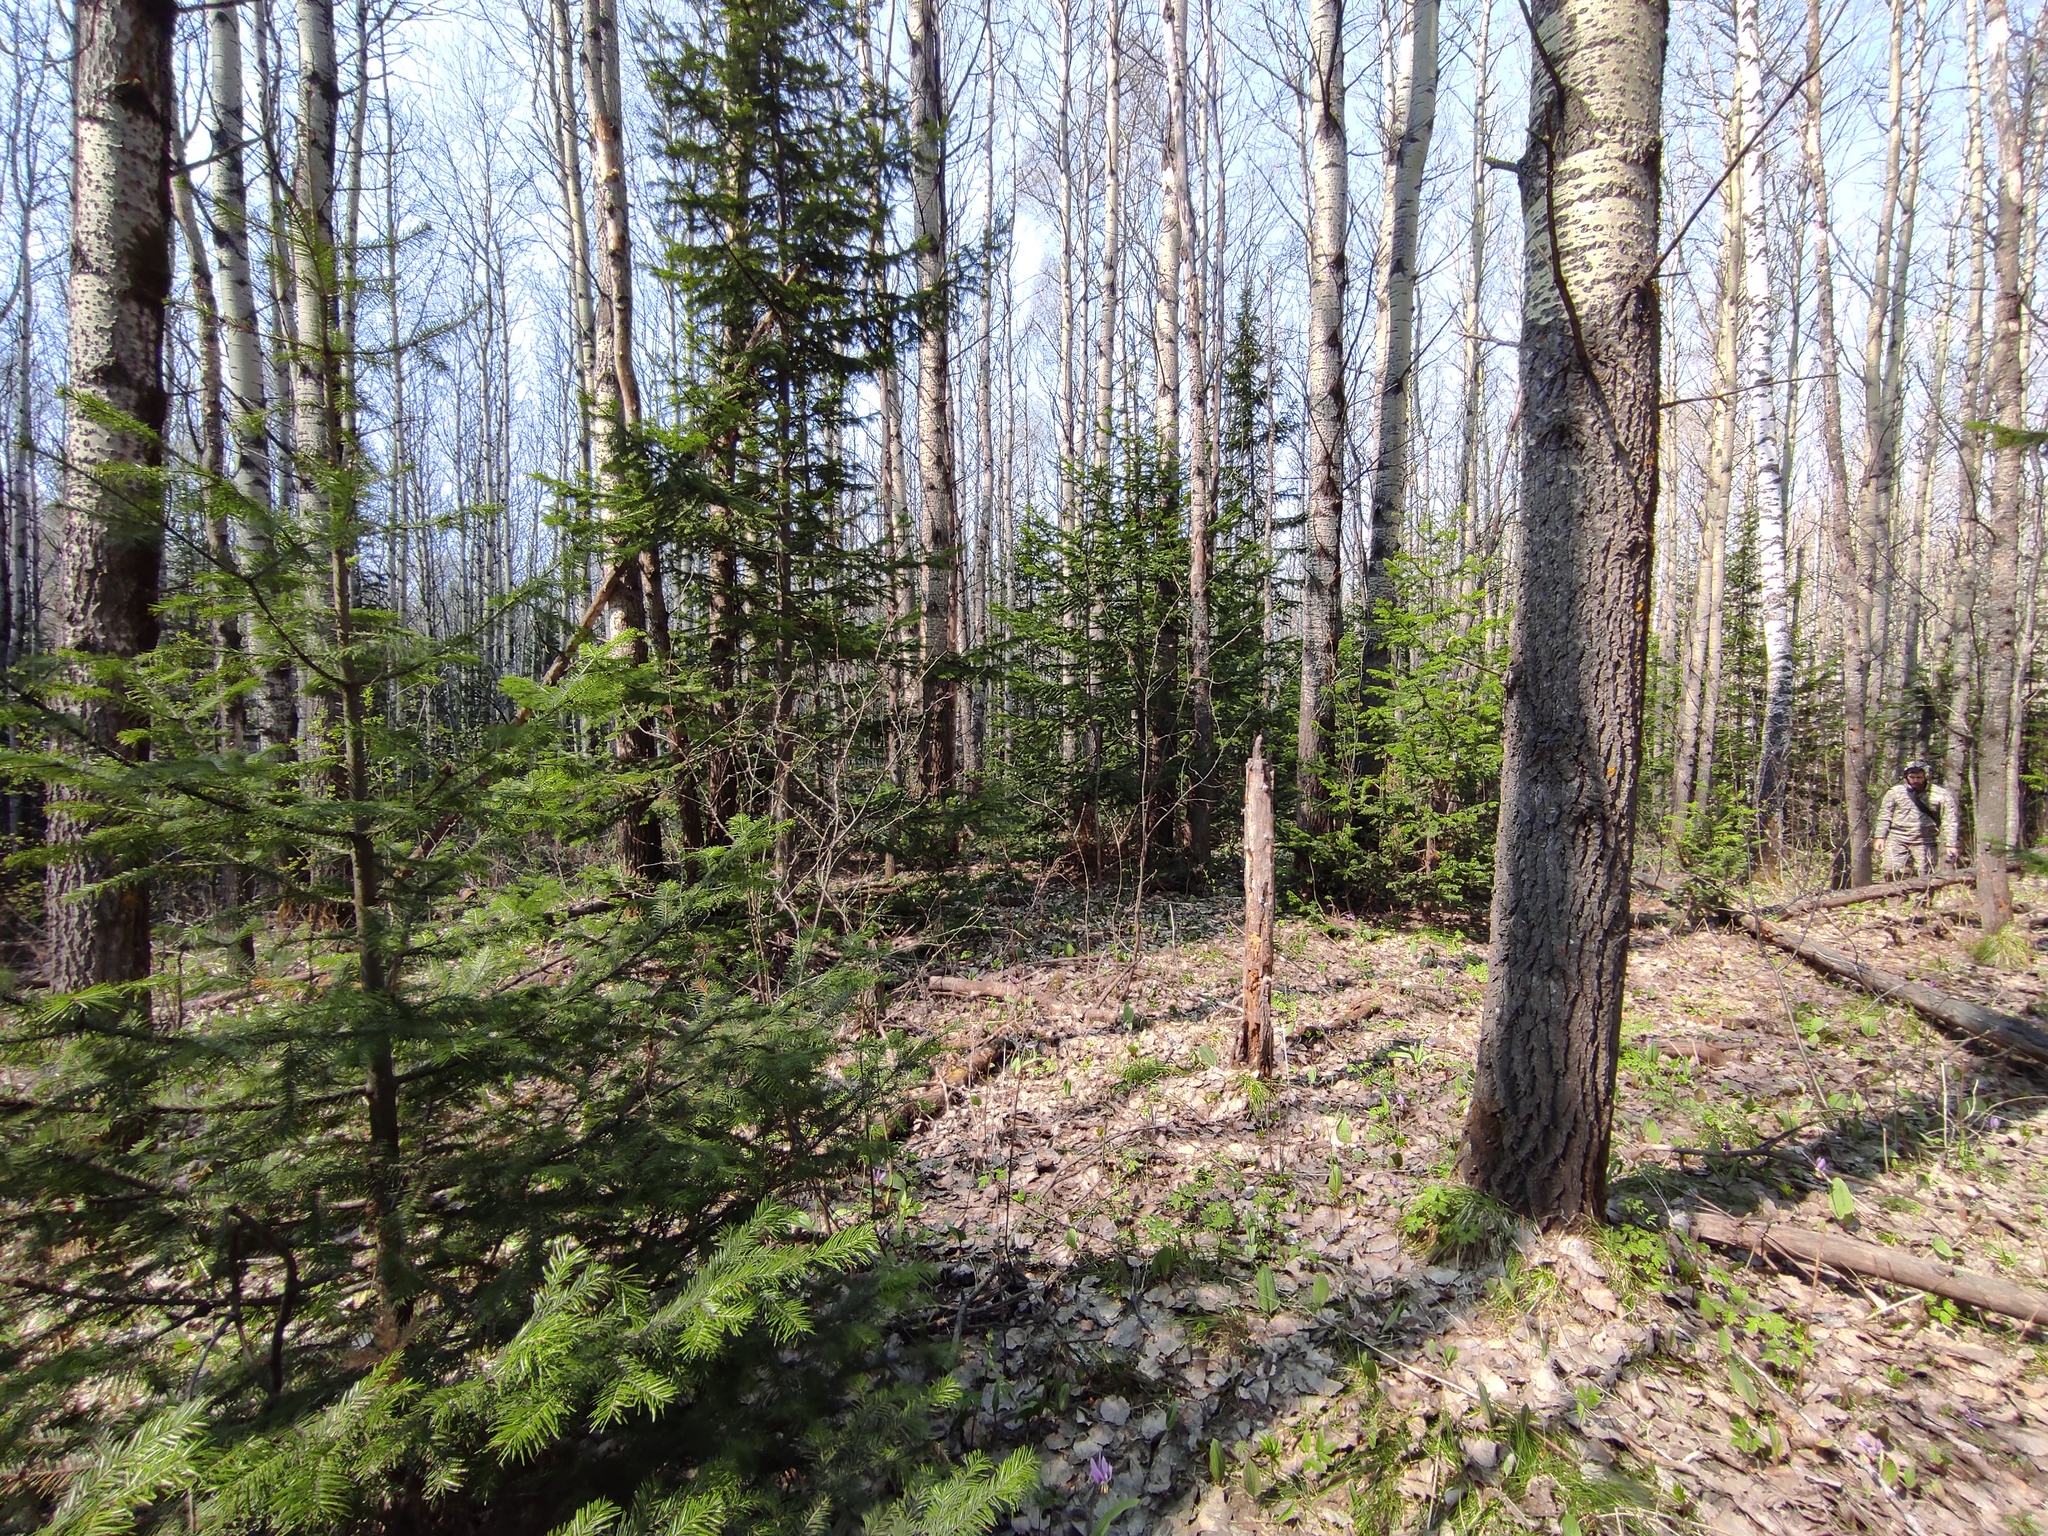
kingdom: Plantae
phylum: Tracheophyta
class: Pinopsida
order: Pinales
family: Pinaceae
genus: Abies
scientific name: Abies sibirica
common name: Siberian fir
